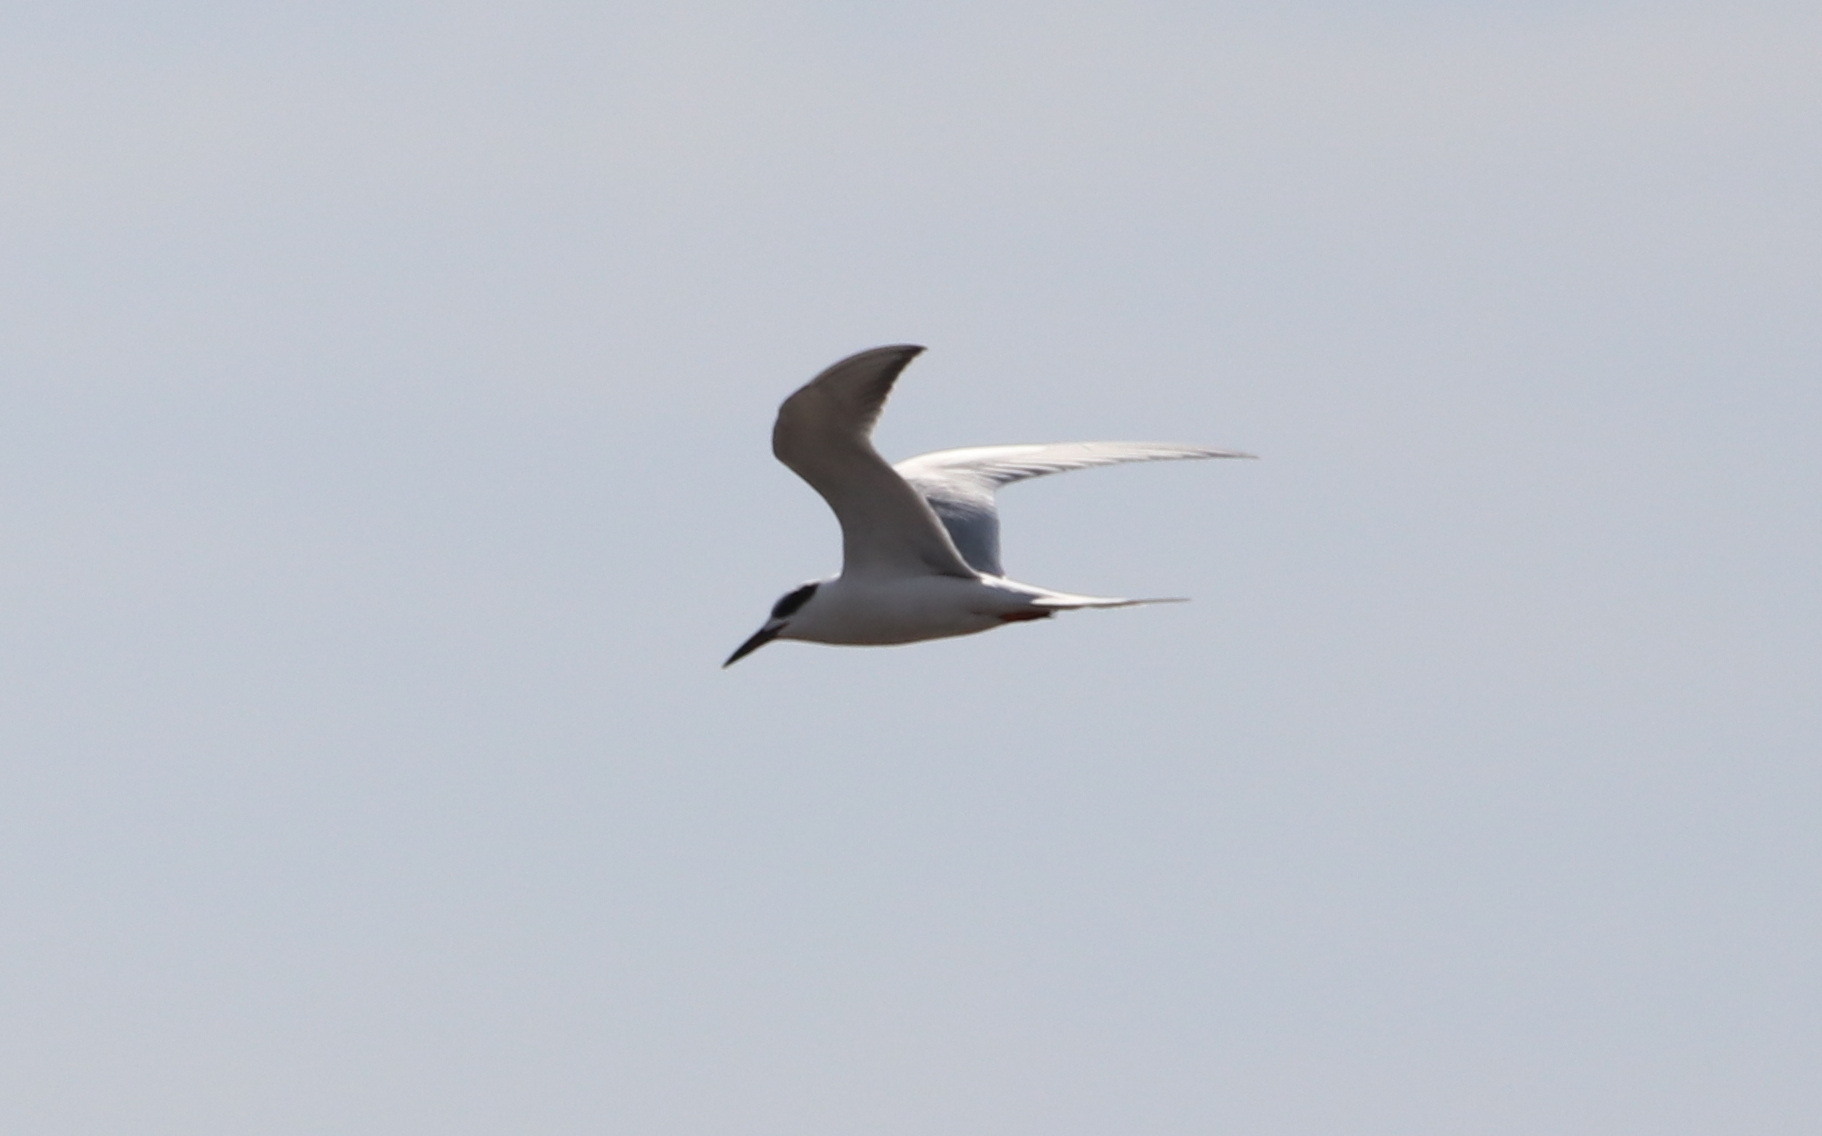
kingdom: Animalia
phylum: Chordata
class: Aves
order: Charadriiformes
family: Laridae
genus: Sterna
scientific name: Sterna forsteri
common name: Forster's tern
